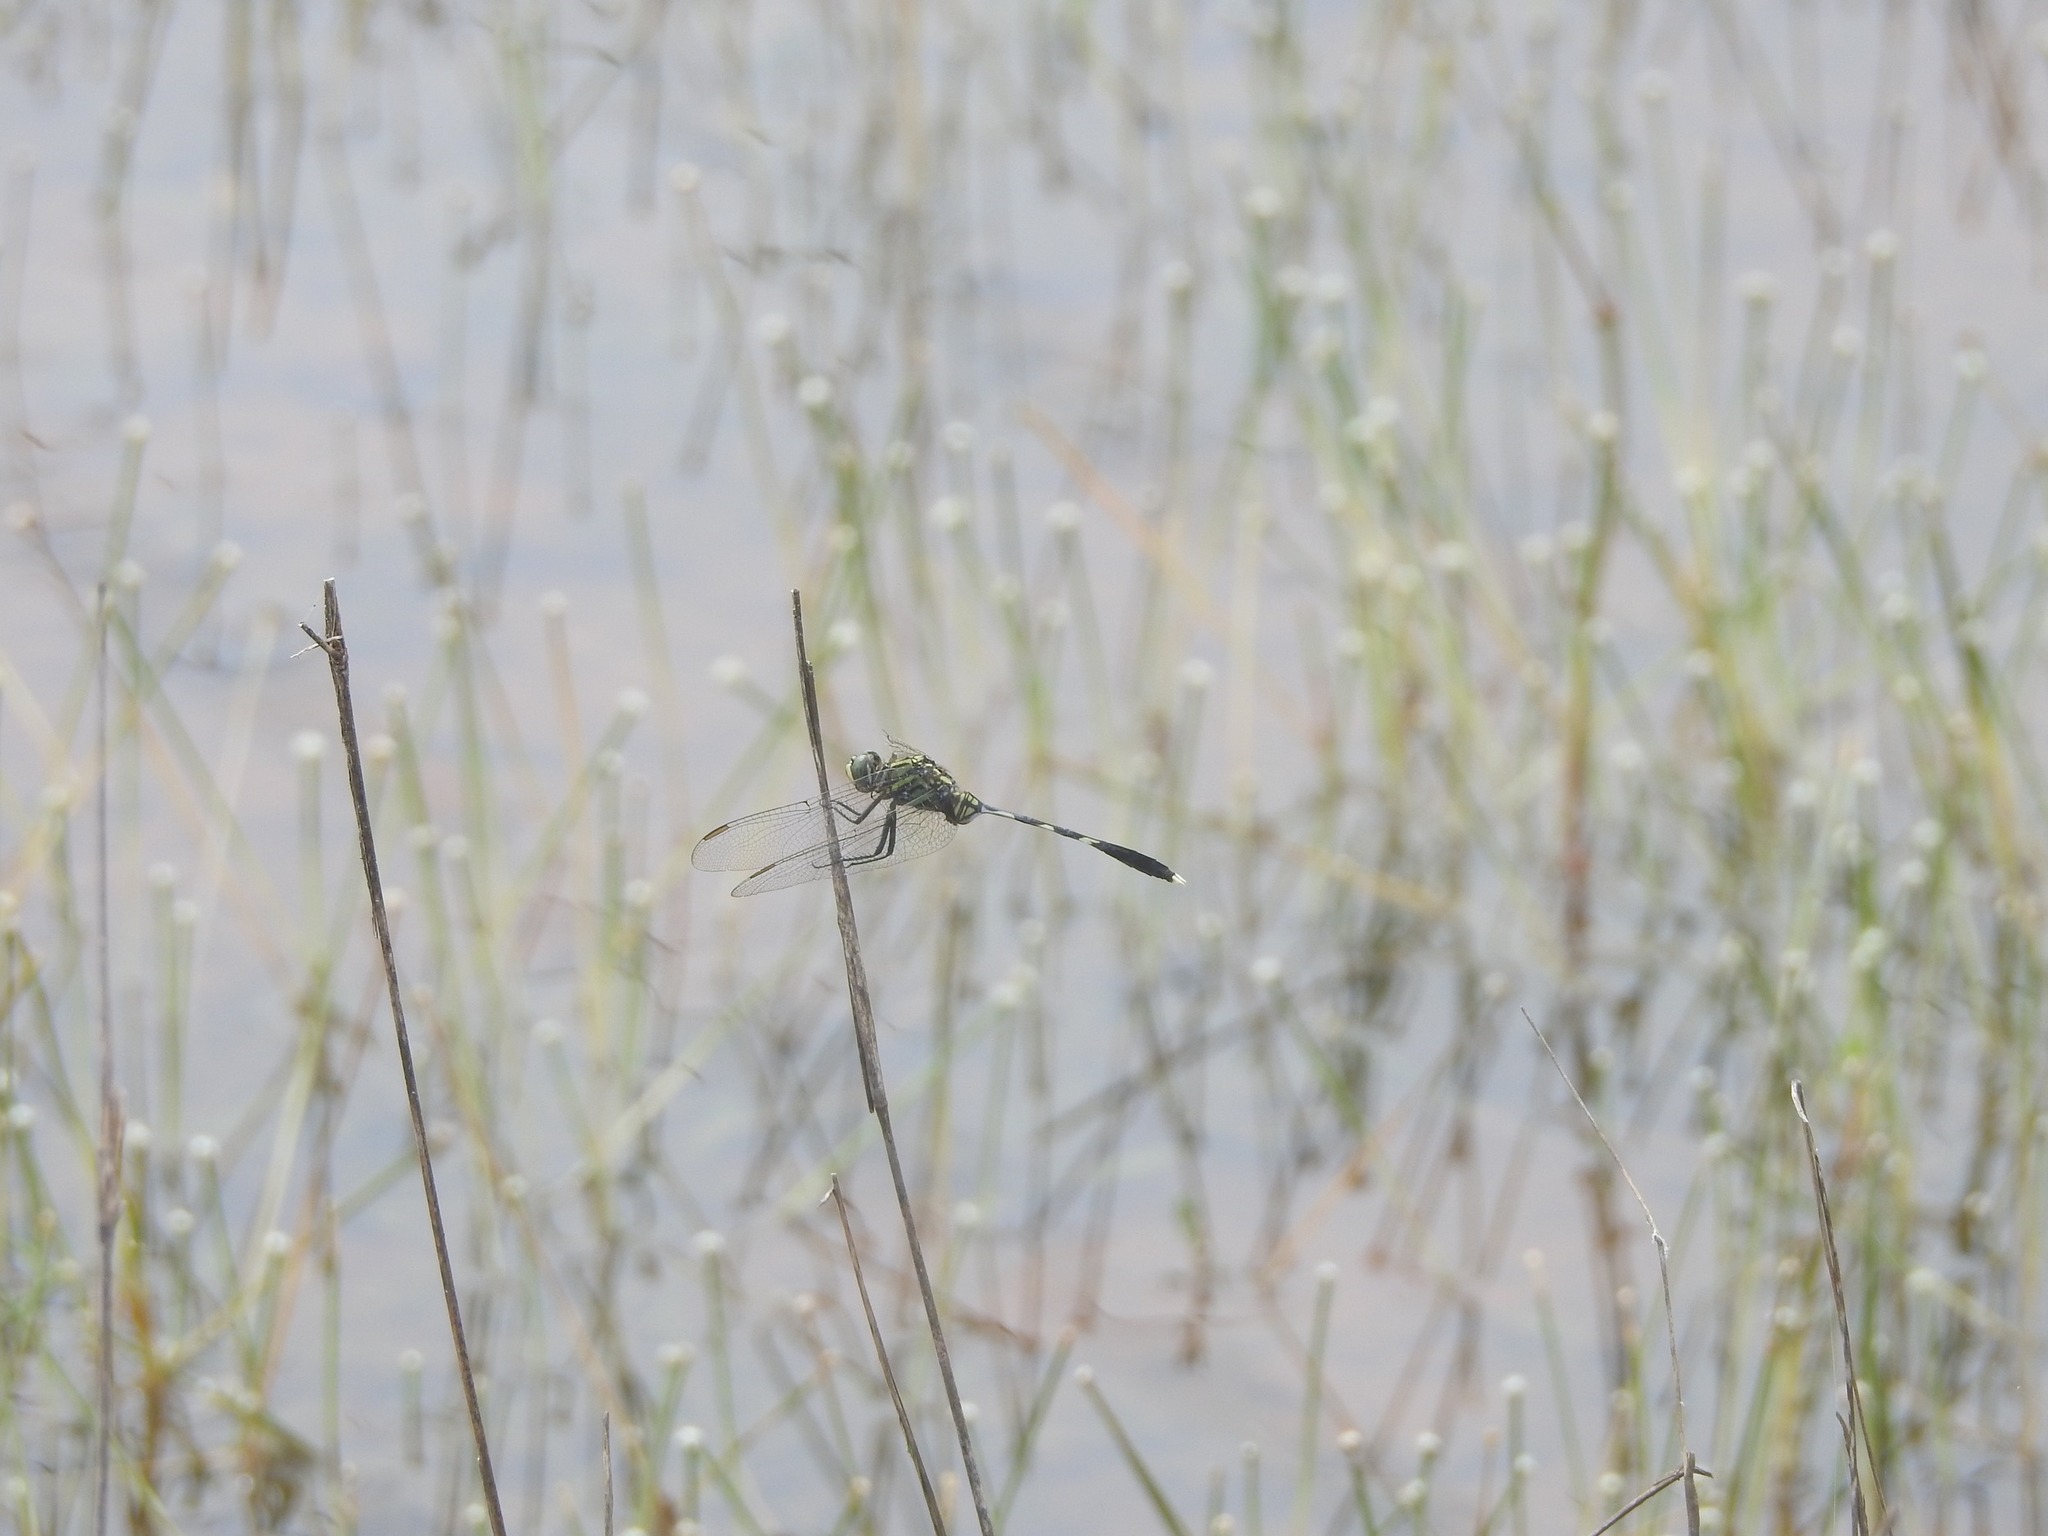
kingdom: Animalia
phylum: Arthropoda
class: Insecta
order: Odonata
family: Libellulidae
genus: Orthetrum
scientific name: Orthetrum sabina
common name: Slender skimmer
